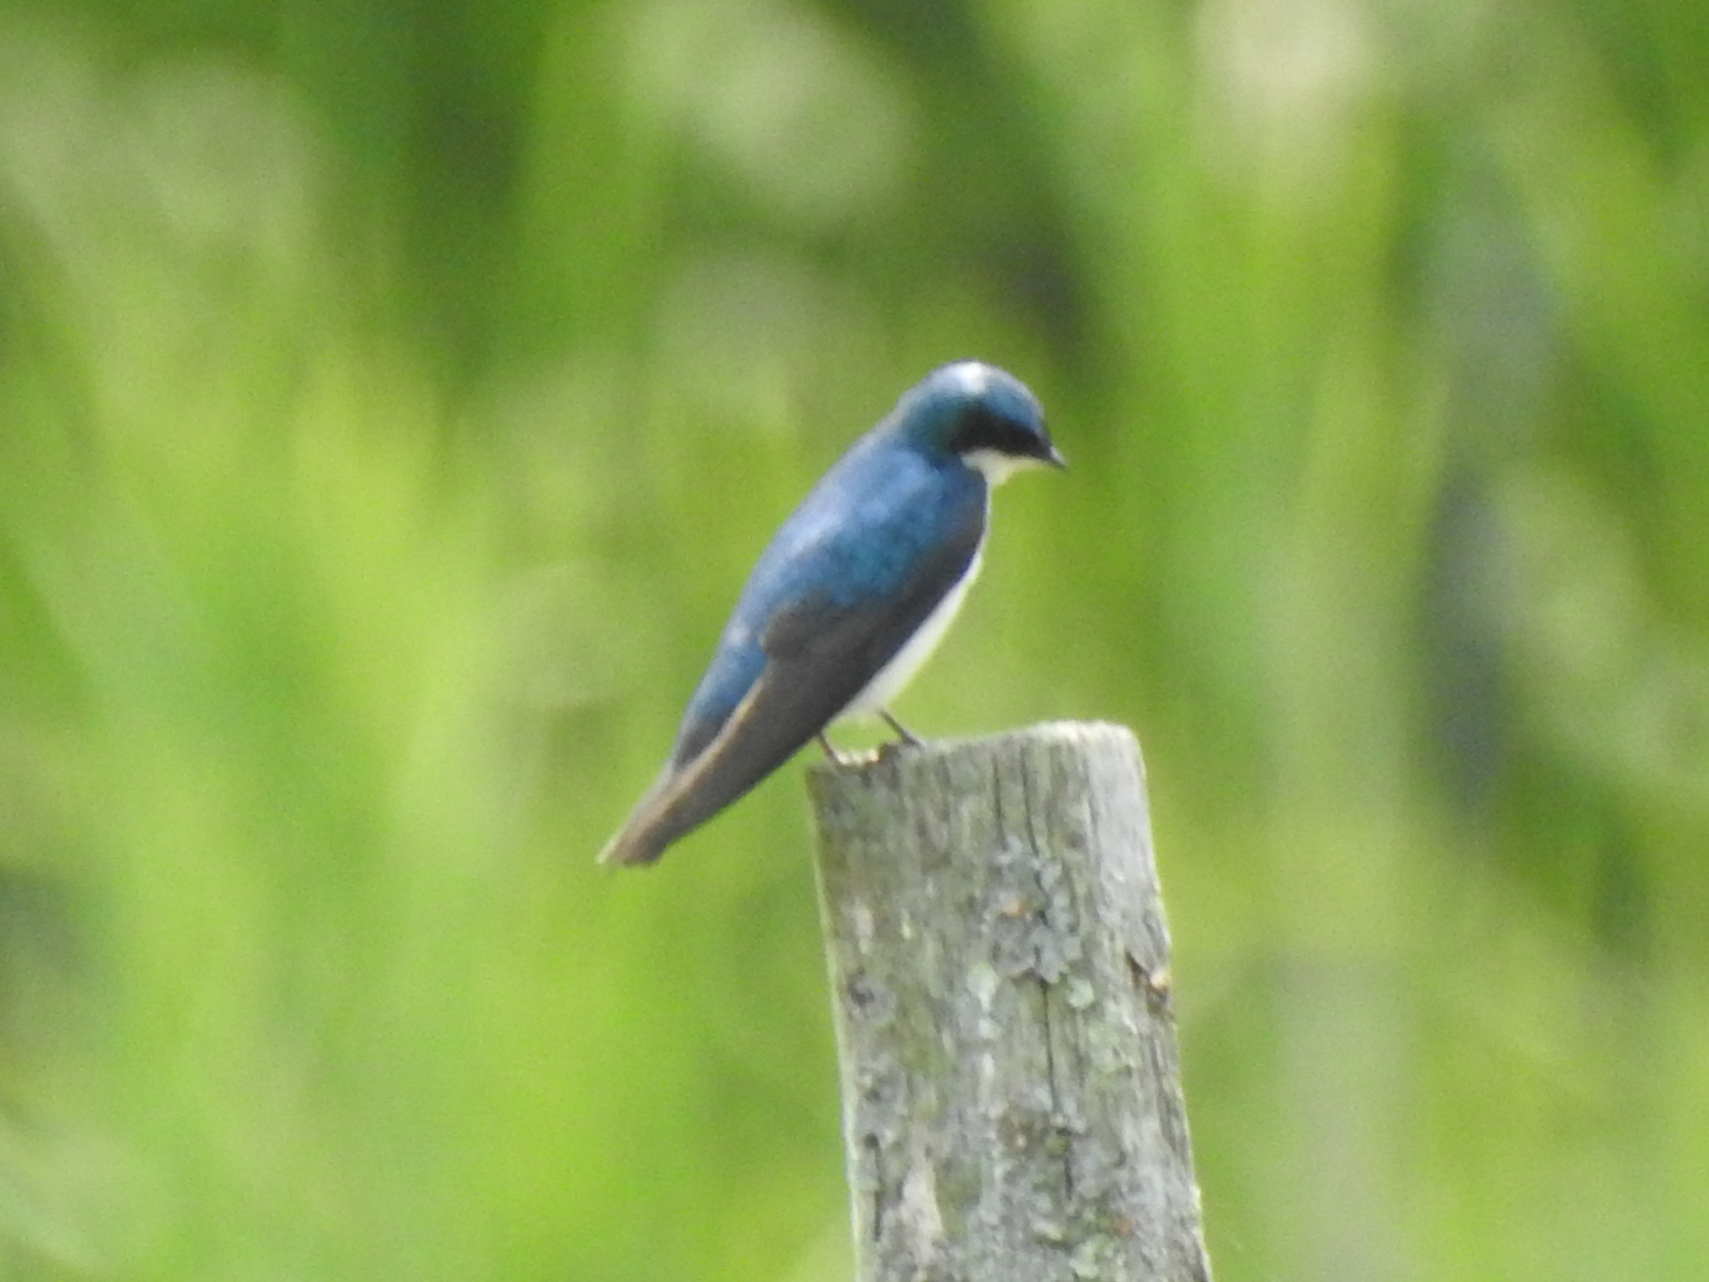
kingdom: Animalia
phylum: Chordata
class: Aves
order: Passeriformes
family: Hirundinidae
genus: Tachycineta
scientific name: Tachycineta bicolor
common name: Tree swallow
